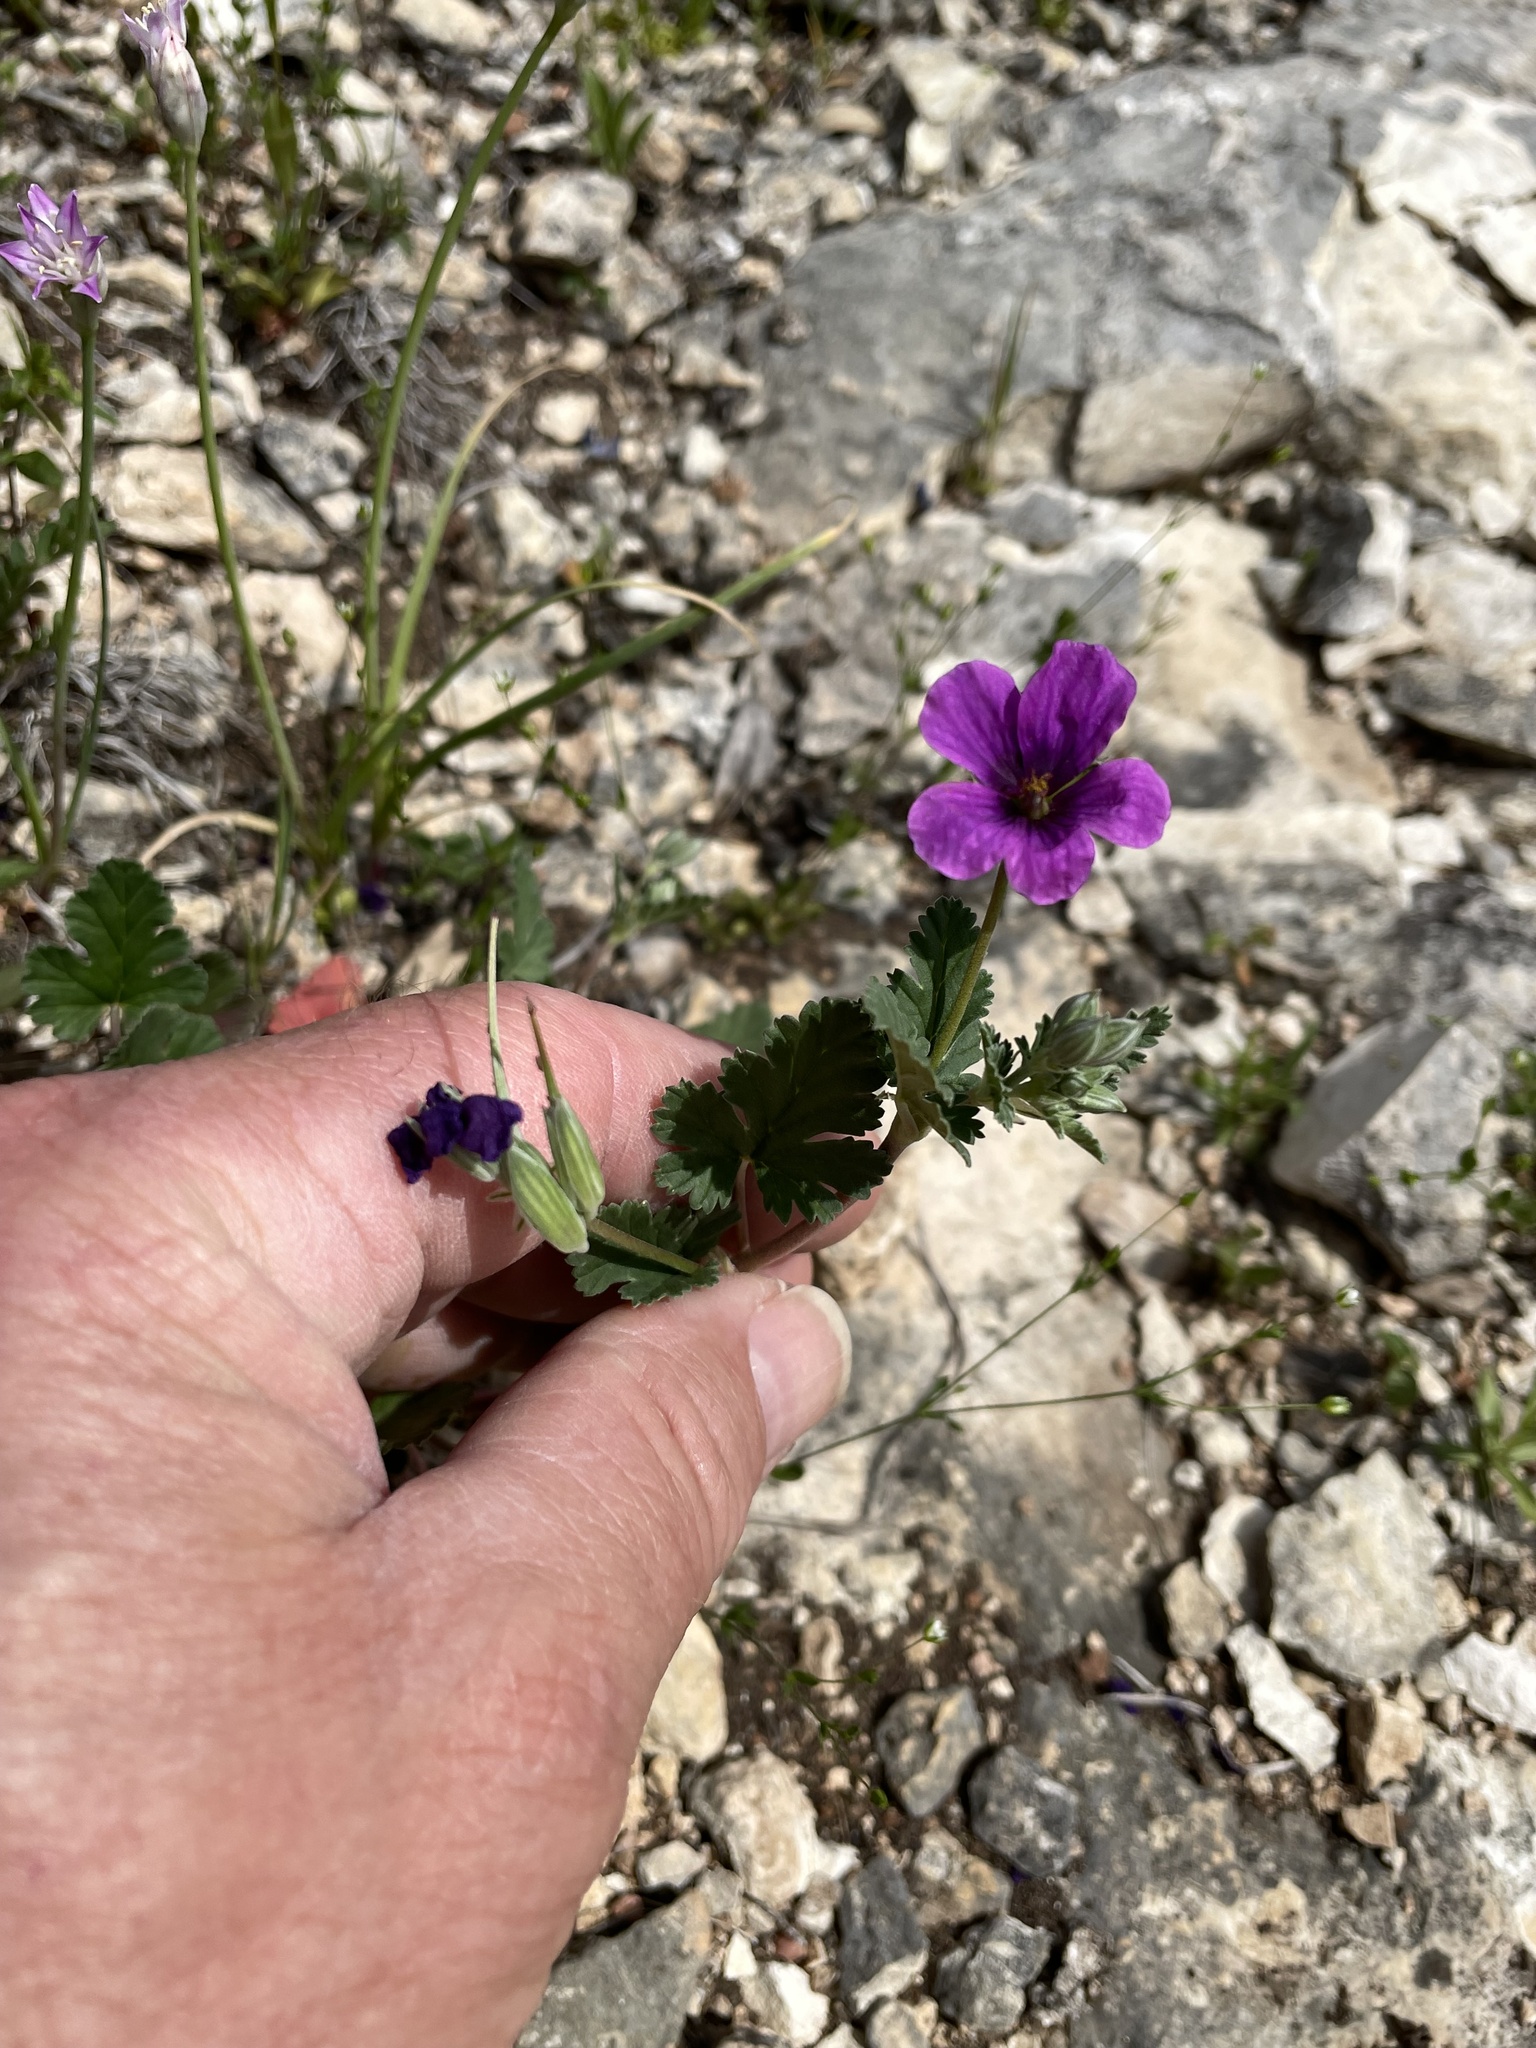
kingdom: Plantae
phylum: Tracheophyta
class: Magnoliopsida
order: Geraniales
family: Geraniaceae
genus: Erodium
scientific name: Erodium texanum
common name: Texas stork's-bill
